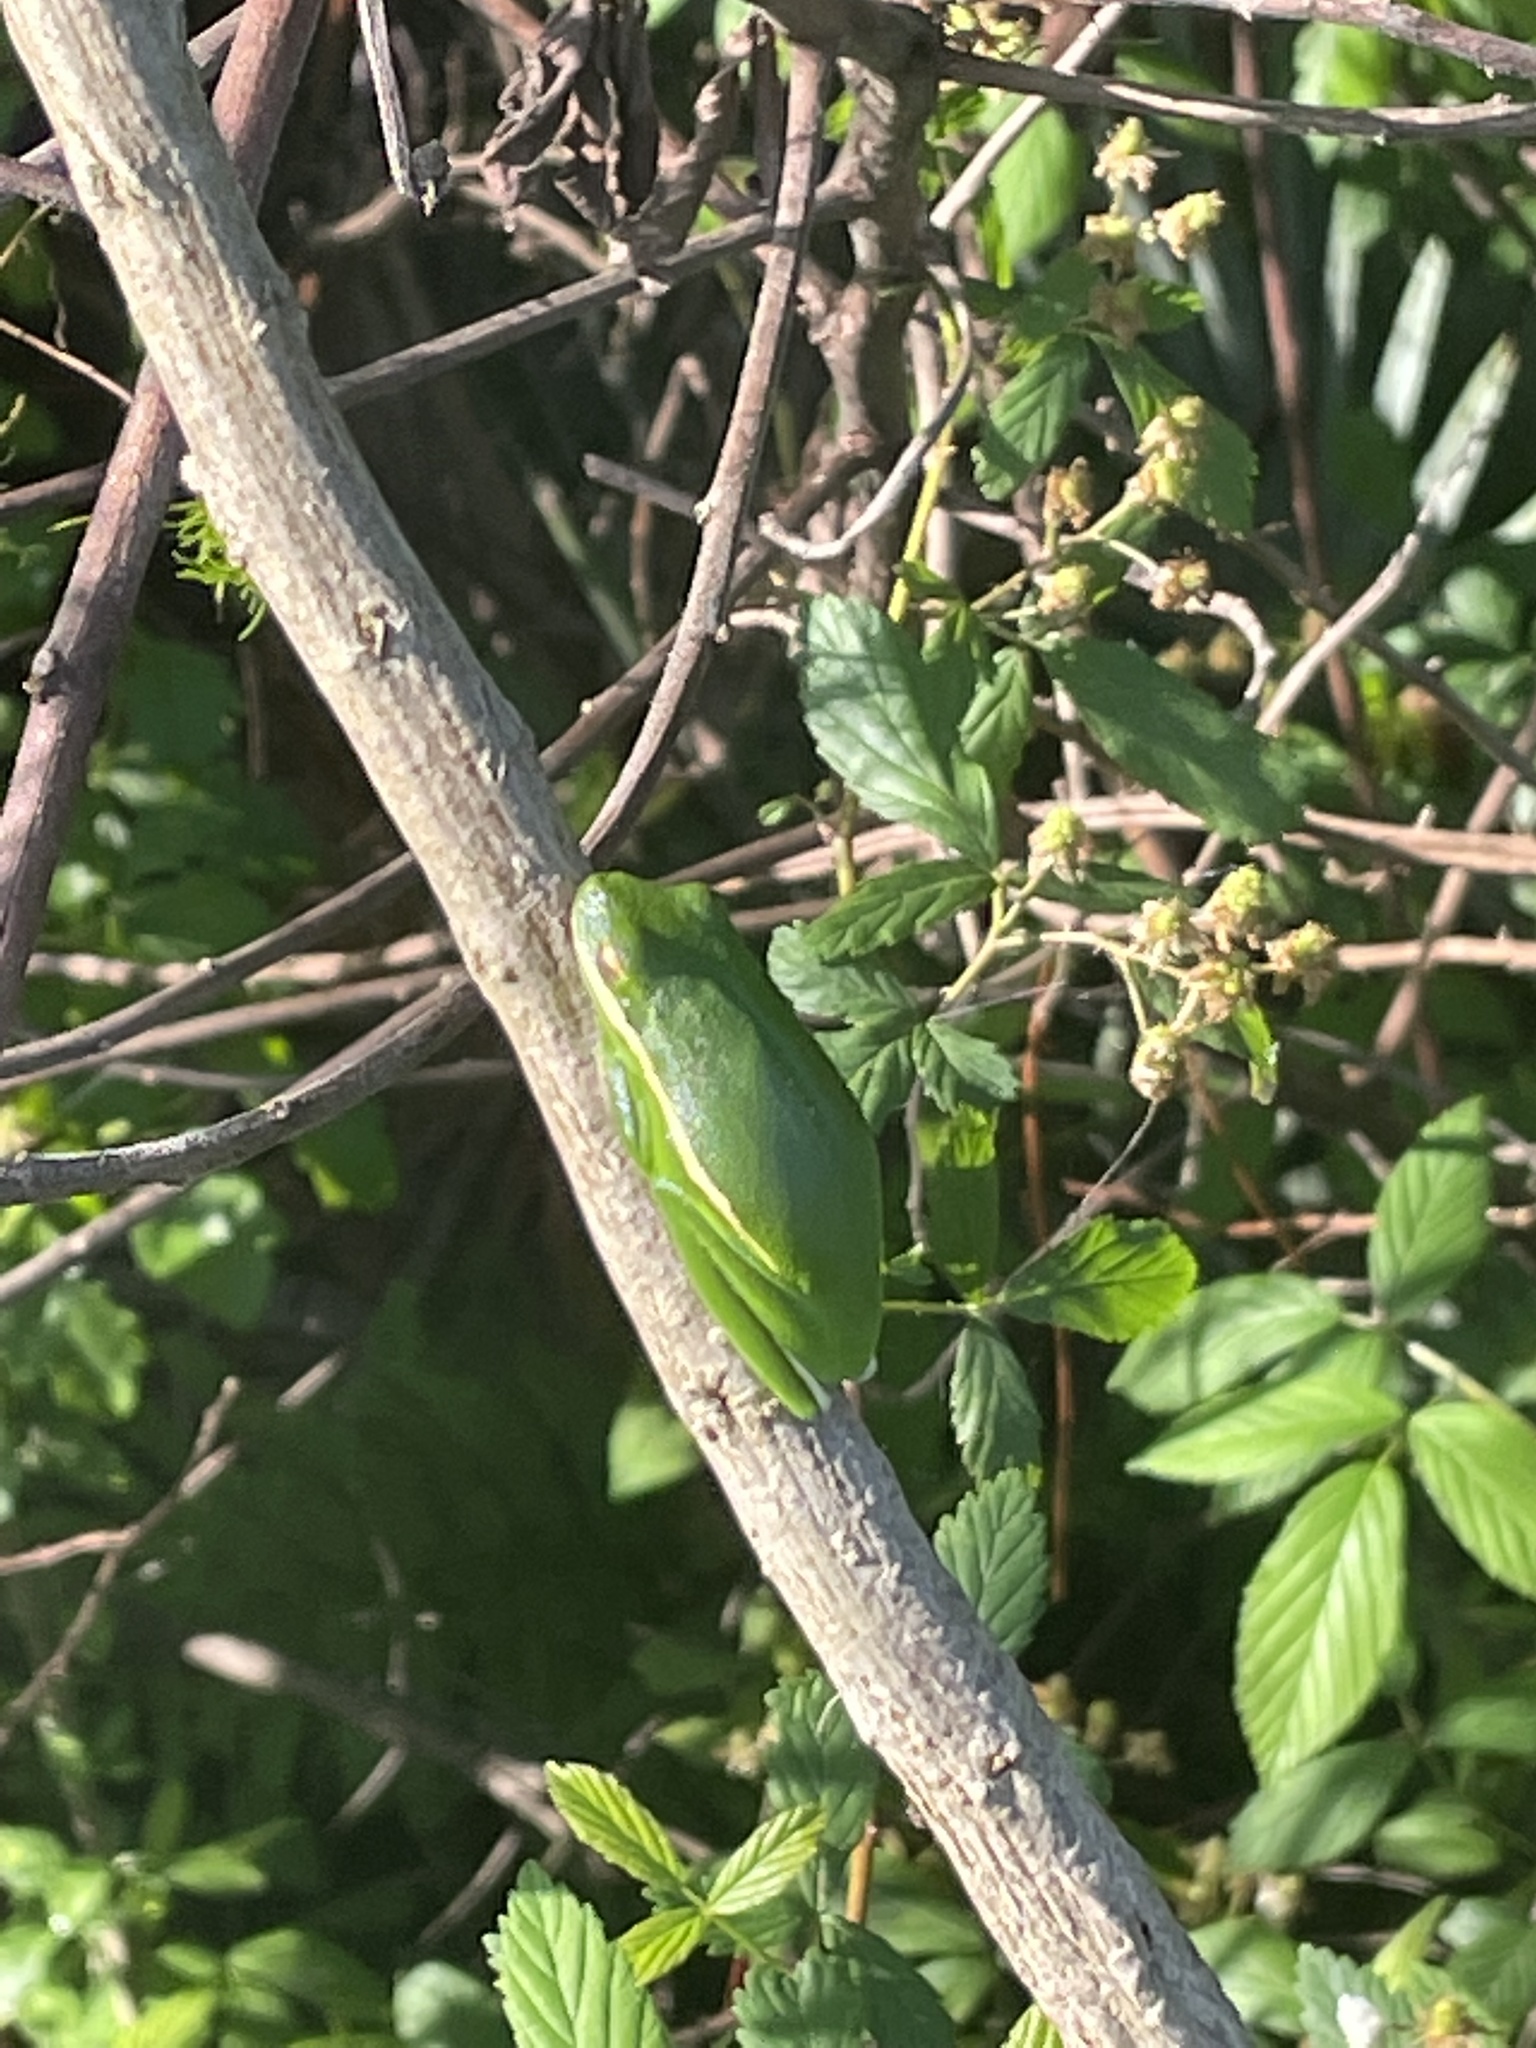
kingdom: Animalia
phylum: Chordata
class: Amphibia
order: Anura
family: Hylidae
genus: Dryophytes
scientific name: Dryophytes cinereus
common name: Green treefrog
